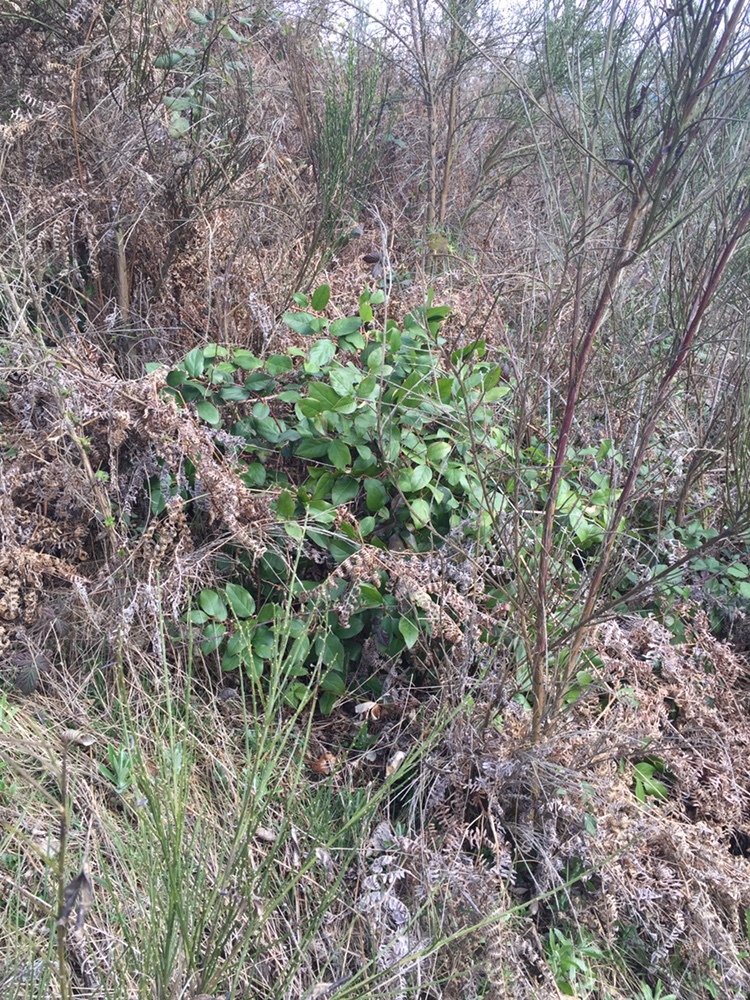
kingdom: Plantae
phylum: Tracheophyta
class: Magnoliopsida
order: Ericales
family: Ericaceae
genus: Gaultheria
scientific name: Gaultheria shallon
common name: Shallon
